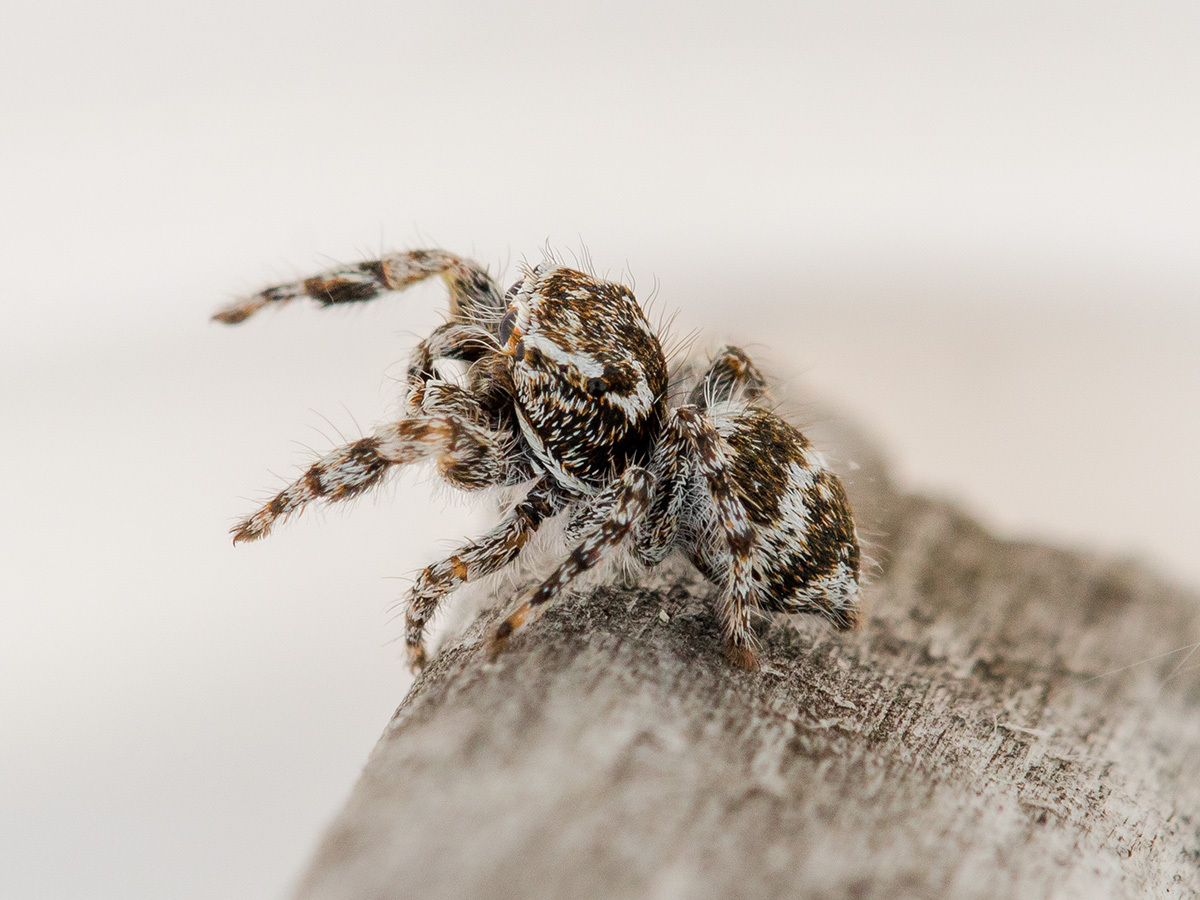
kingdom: Animalia
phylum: Arthropoda
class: Arachnida
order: Araneae
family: Salticidae
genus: Pseudomogrus
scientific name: Pseudomogrus albocinctus
